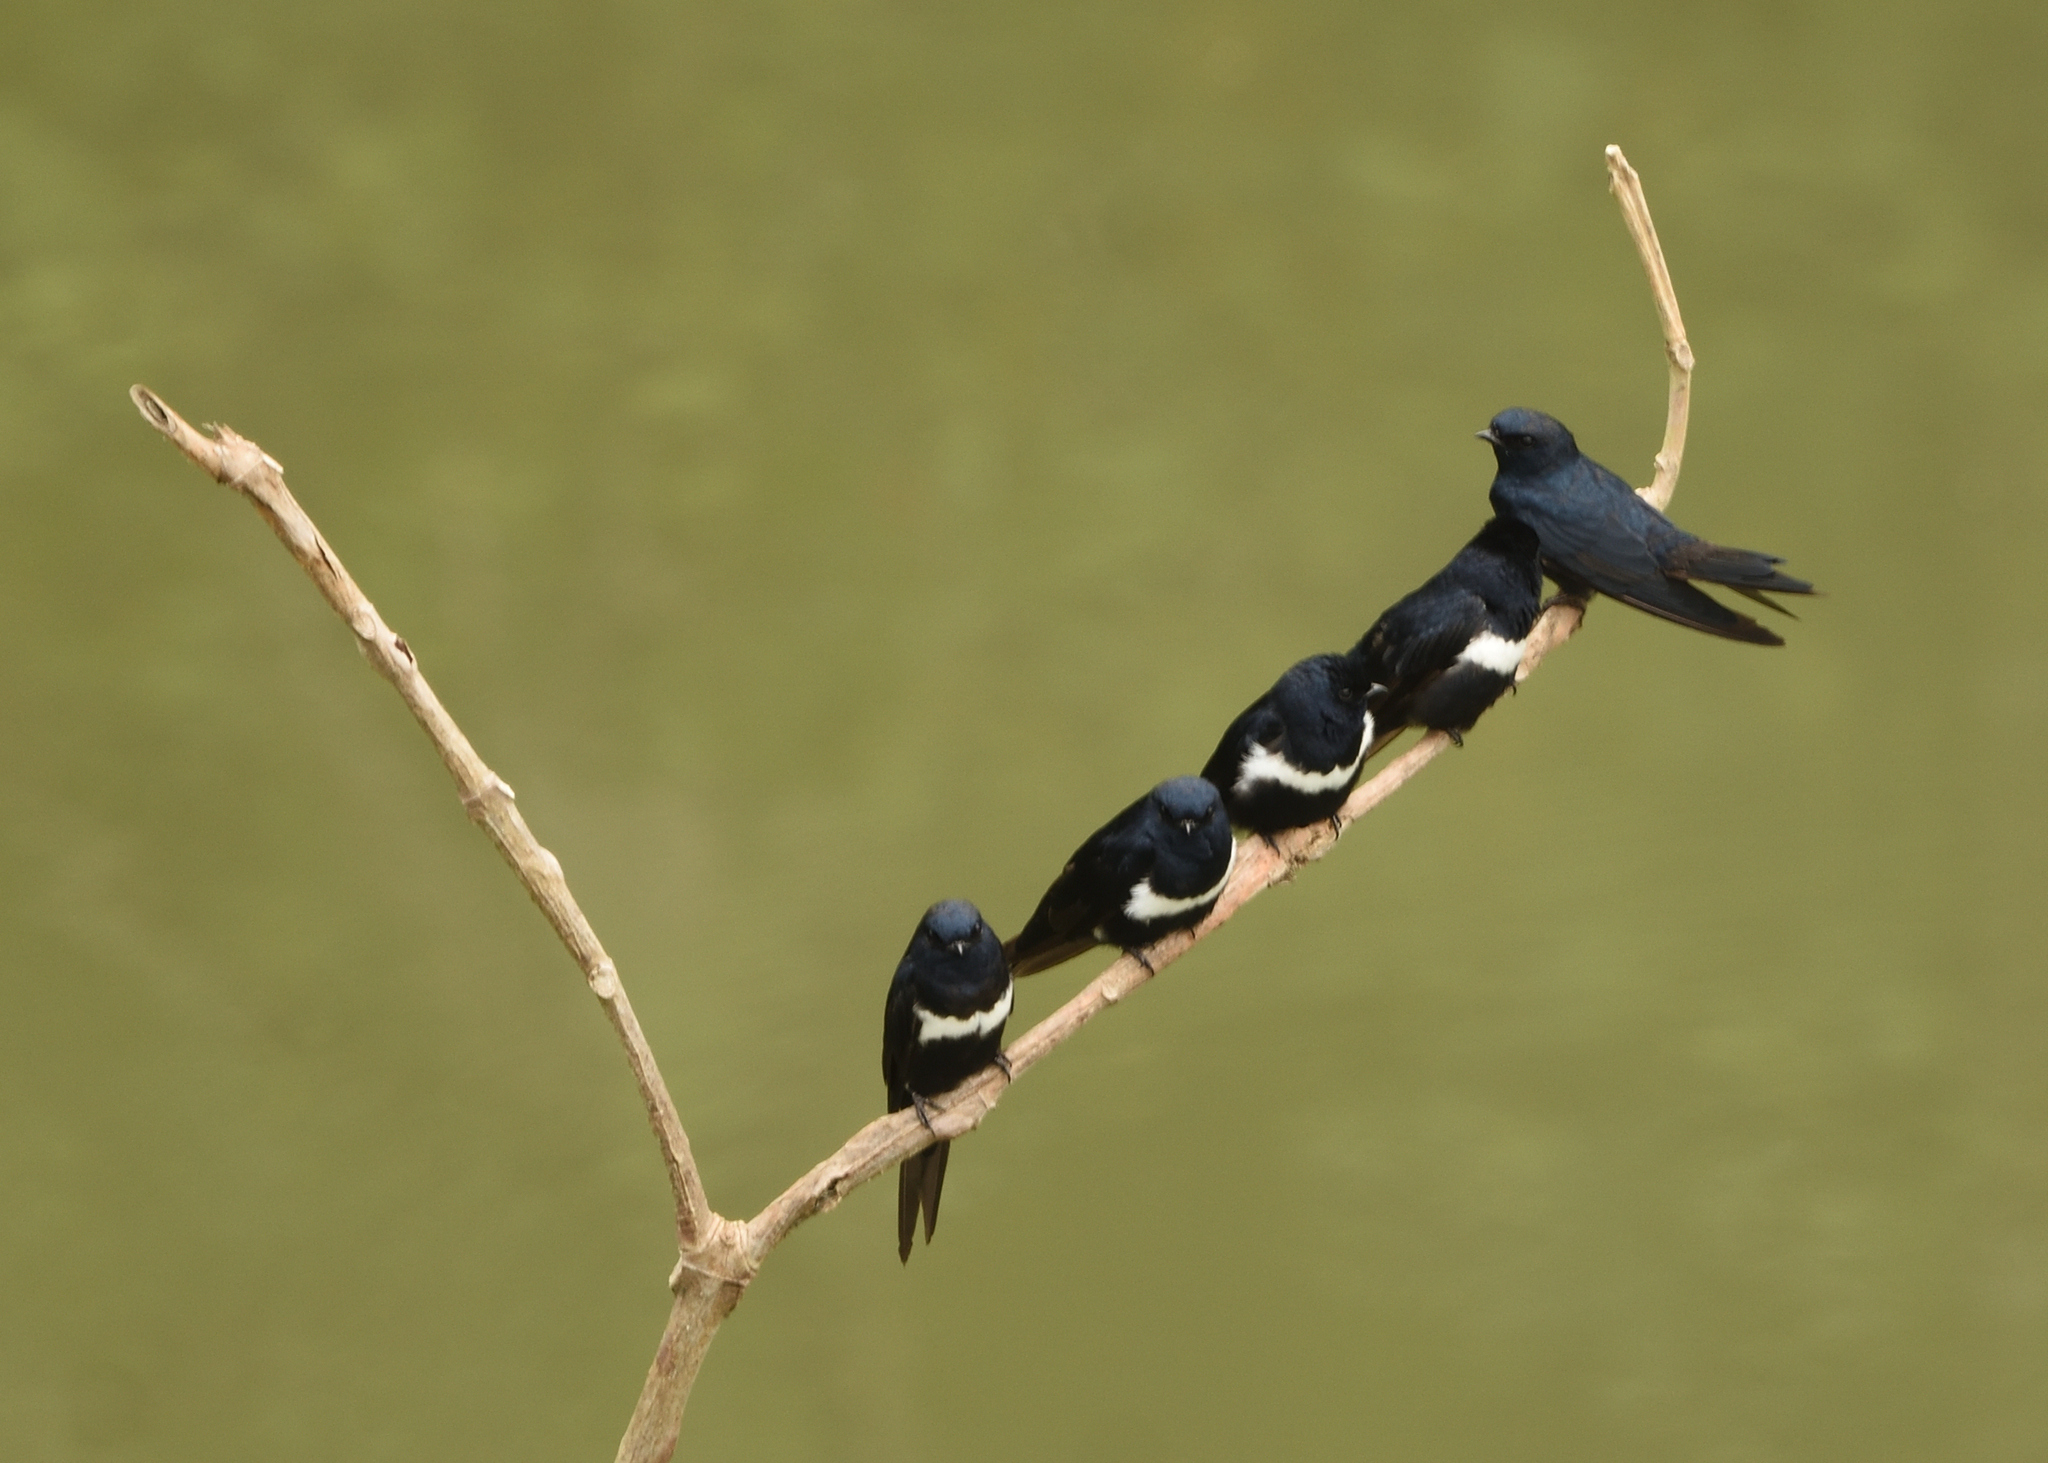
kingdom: Animalia
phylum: Chordata
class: Aves
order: Passeriformes
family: Hirundinidae
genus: Atticora
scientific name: Atticora fasciata
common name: White-banded swallow
